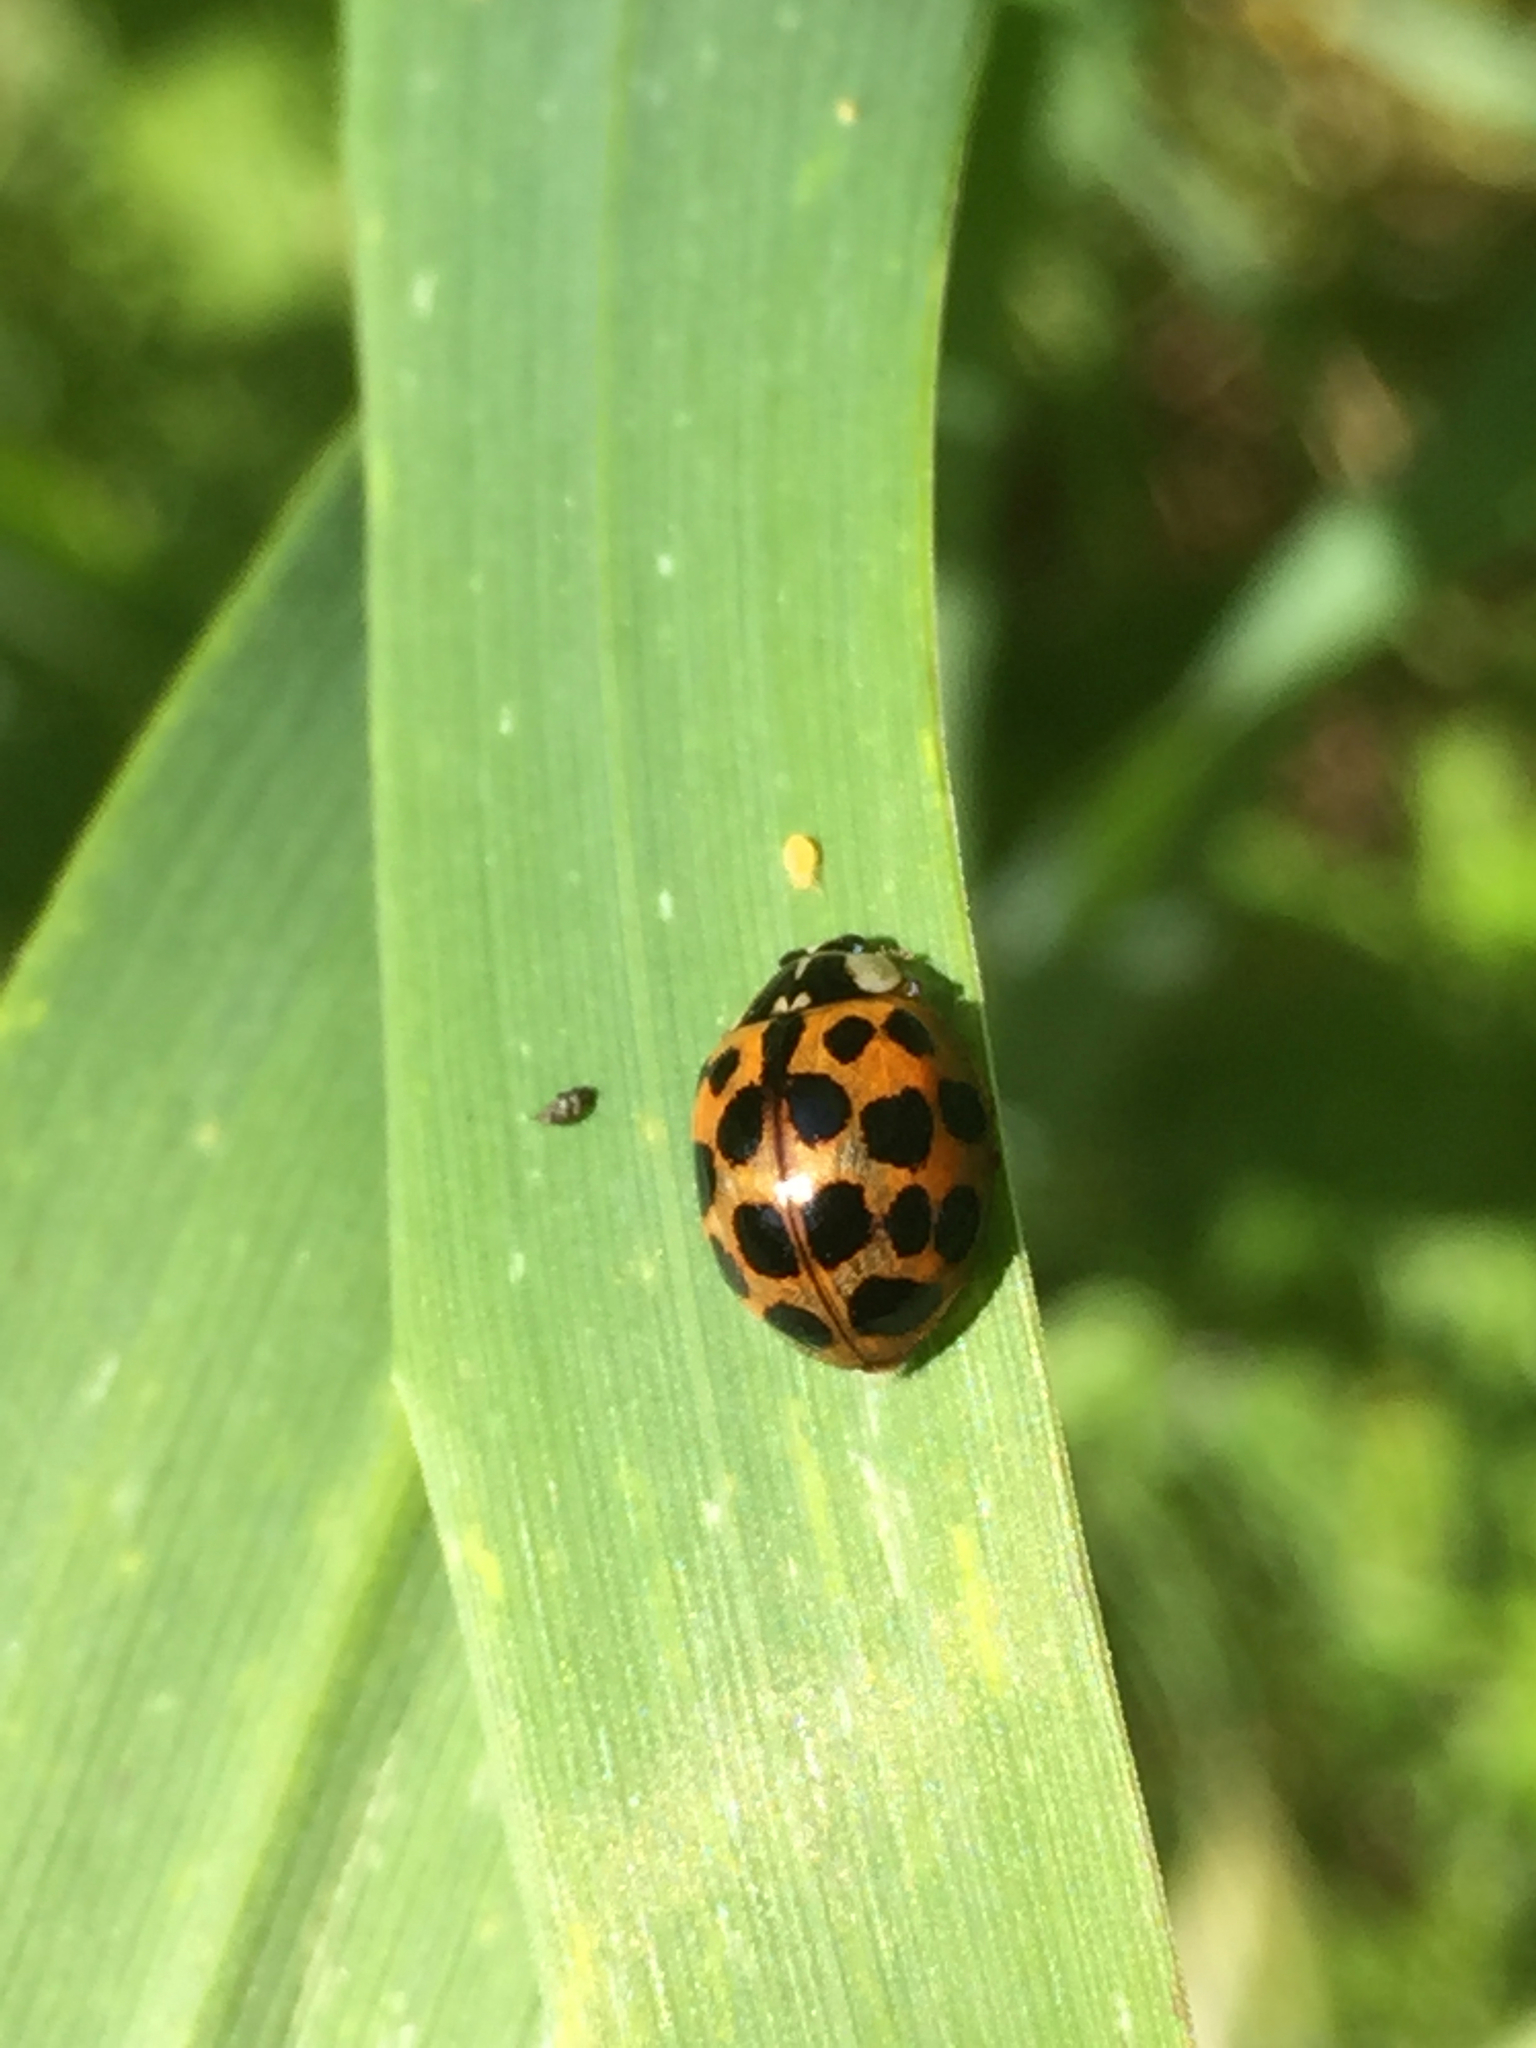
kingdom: Animalia
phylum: Arthropoda
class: Insecta
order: Coleoptera
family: Coccinellidae
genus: Harmonia
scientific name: Harmonia axyridis
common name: Harlequin ladybird
